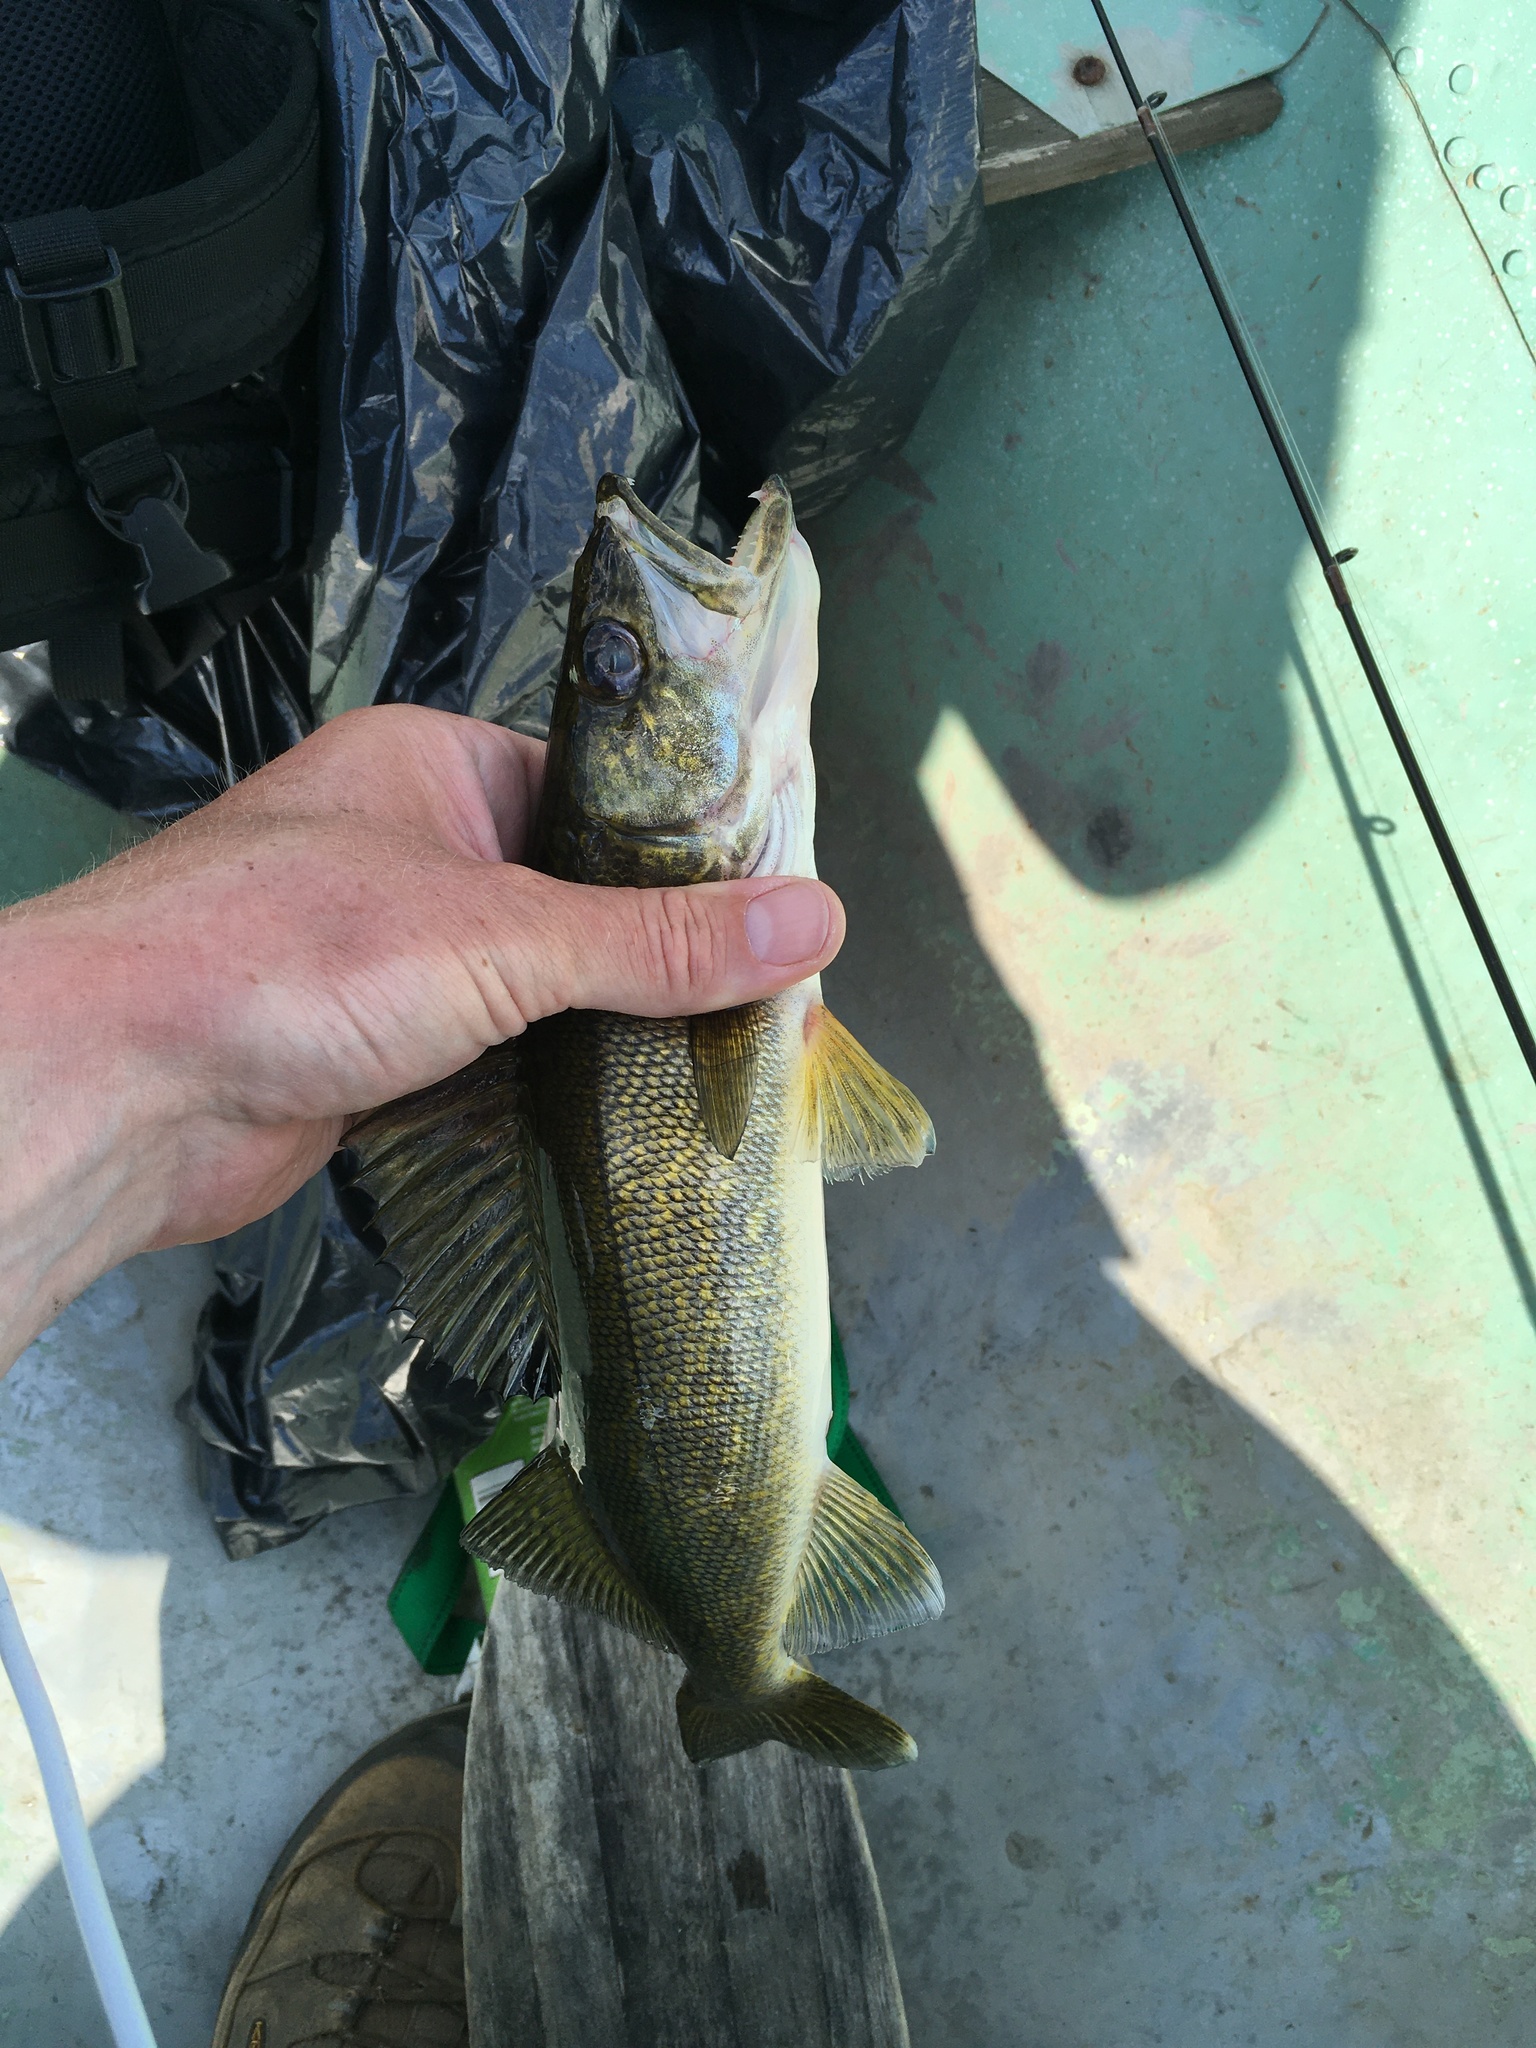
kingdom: Animalia
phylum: Chordata
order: Perciformes
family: Percidae
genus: Sander
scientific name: Sander vitreus
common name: Walleye
